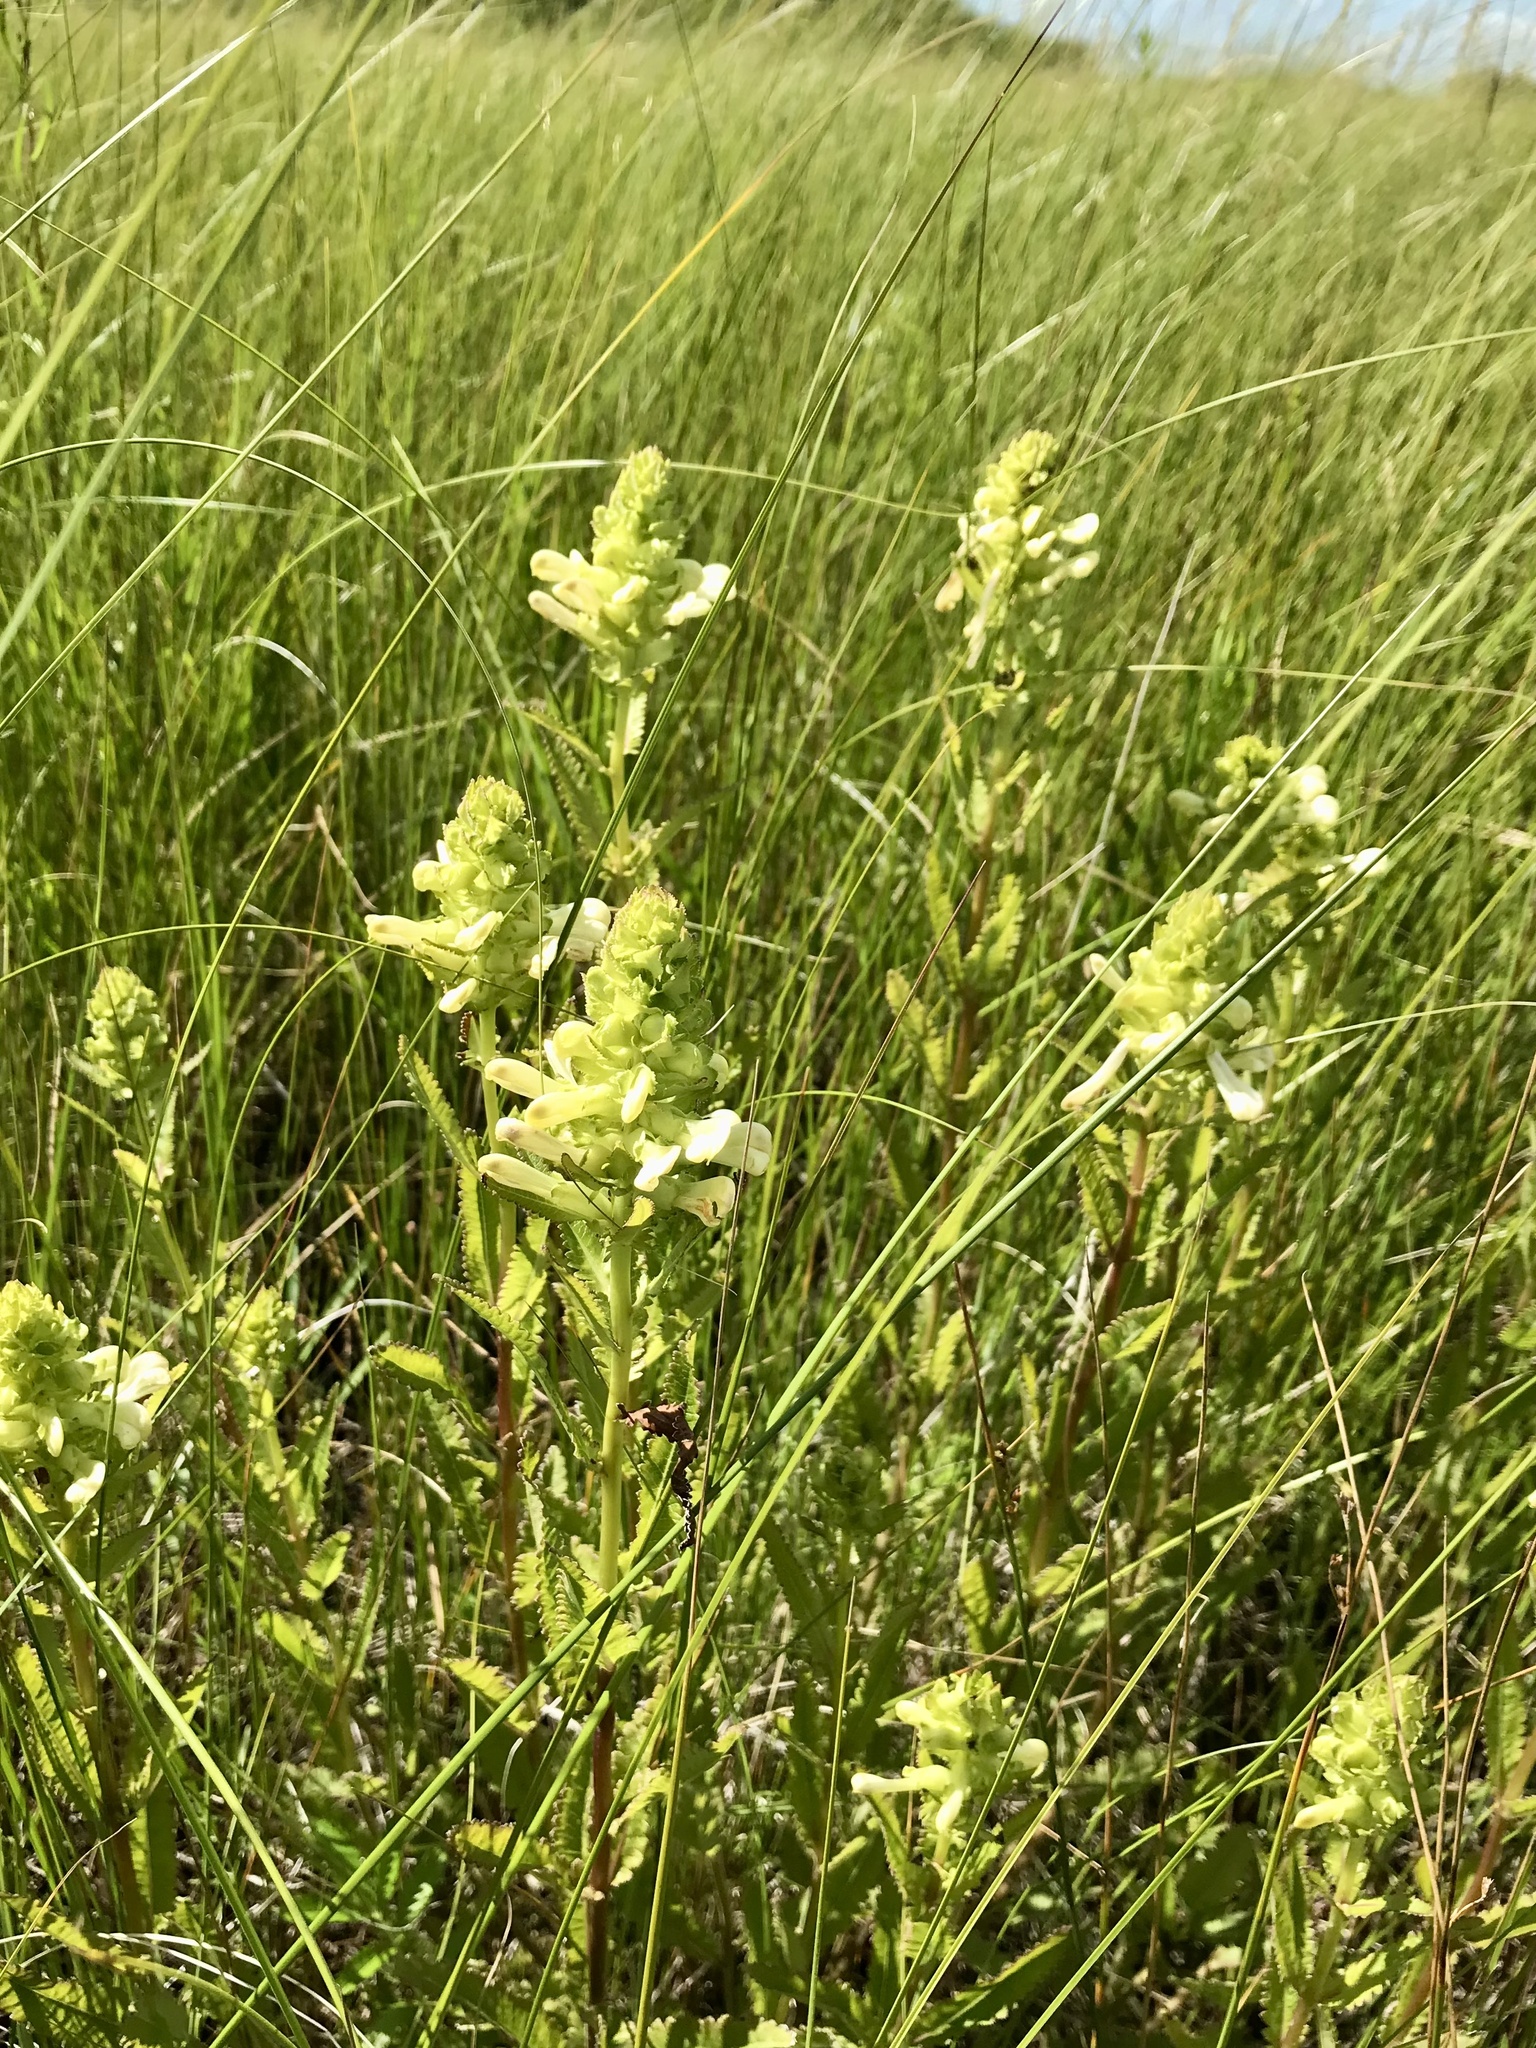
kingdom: Plantae
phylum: Tracheophyta
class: Magnoliopsida
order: Lamiales
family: Orobanchaceae
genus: Pedicularis
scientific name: Pedicularis lanceolata
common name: Swamp lousewort
